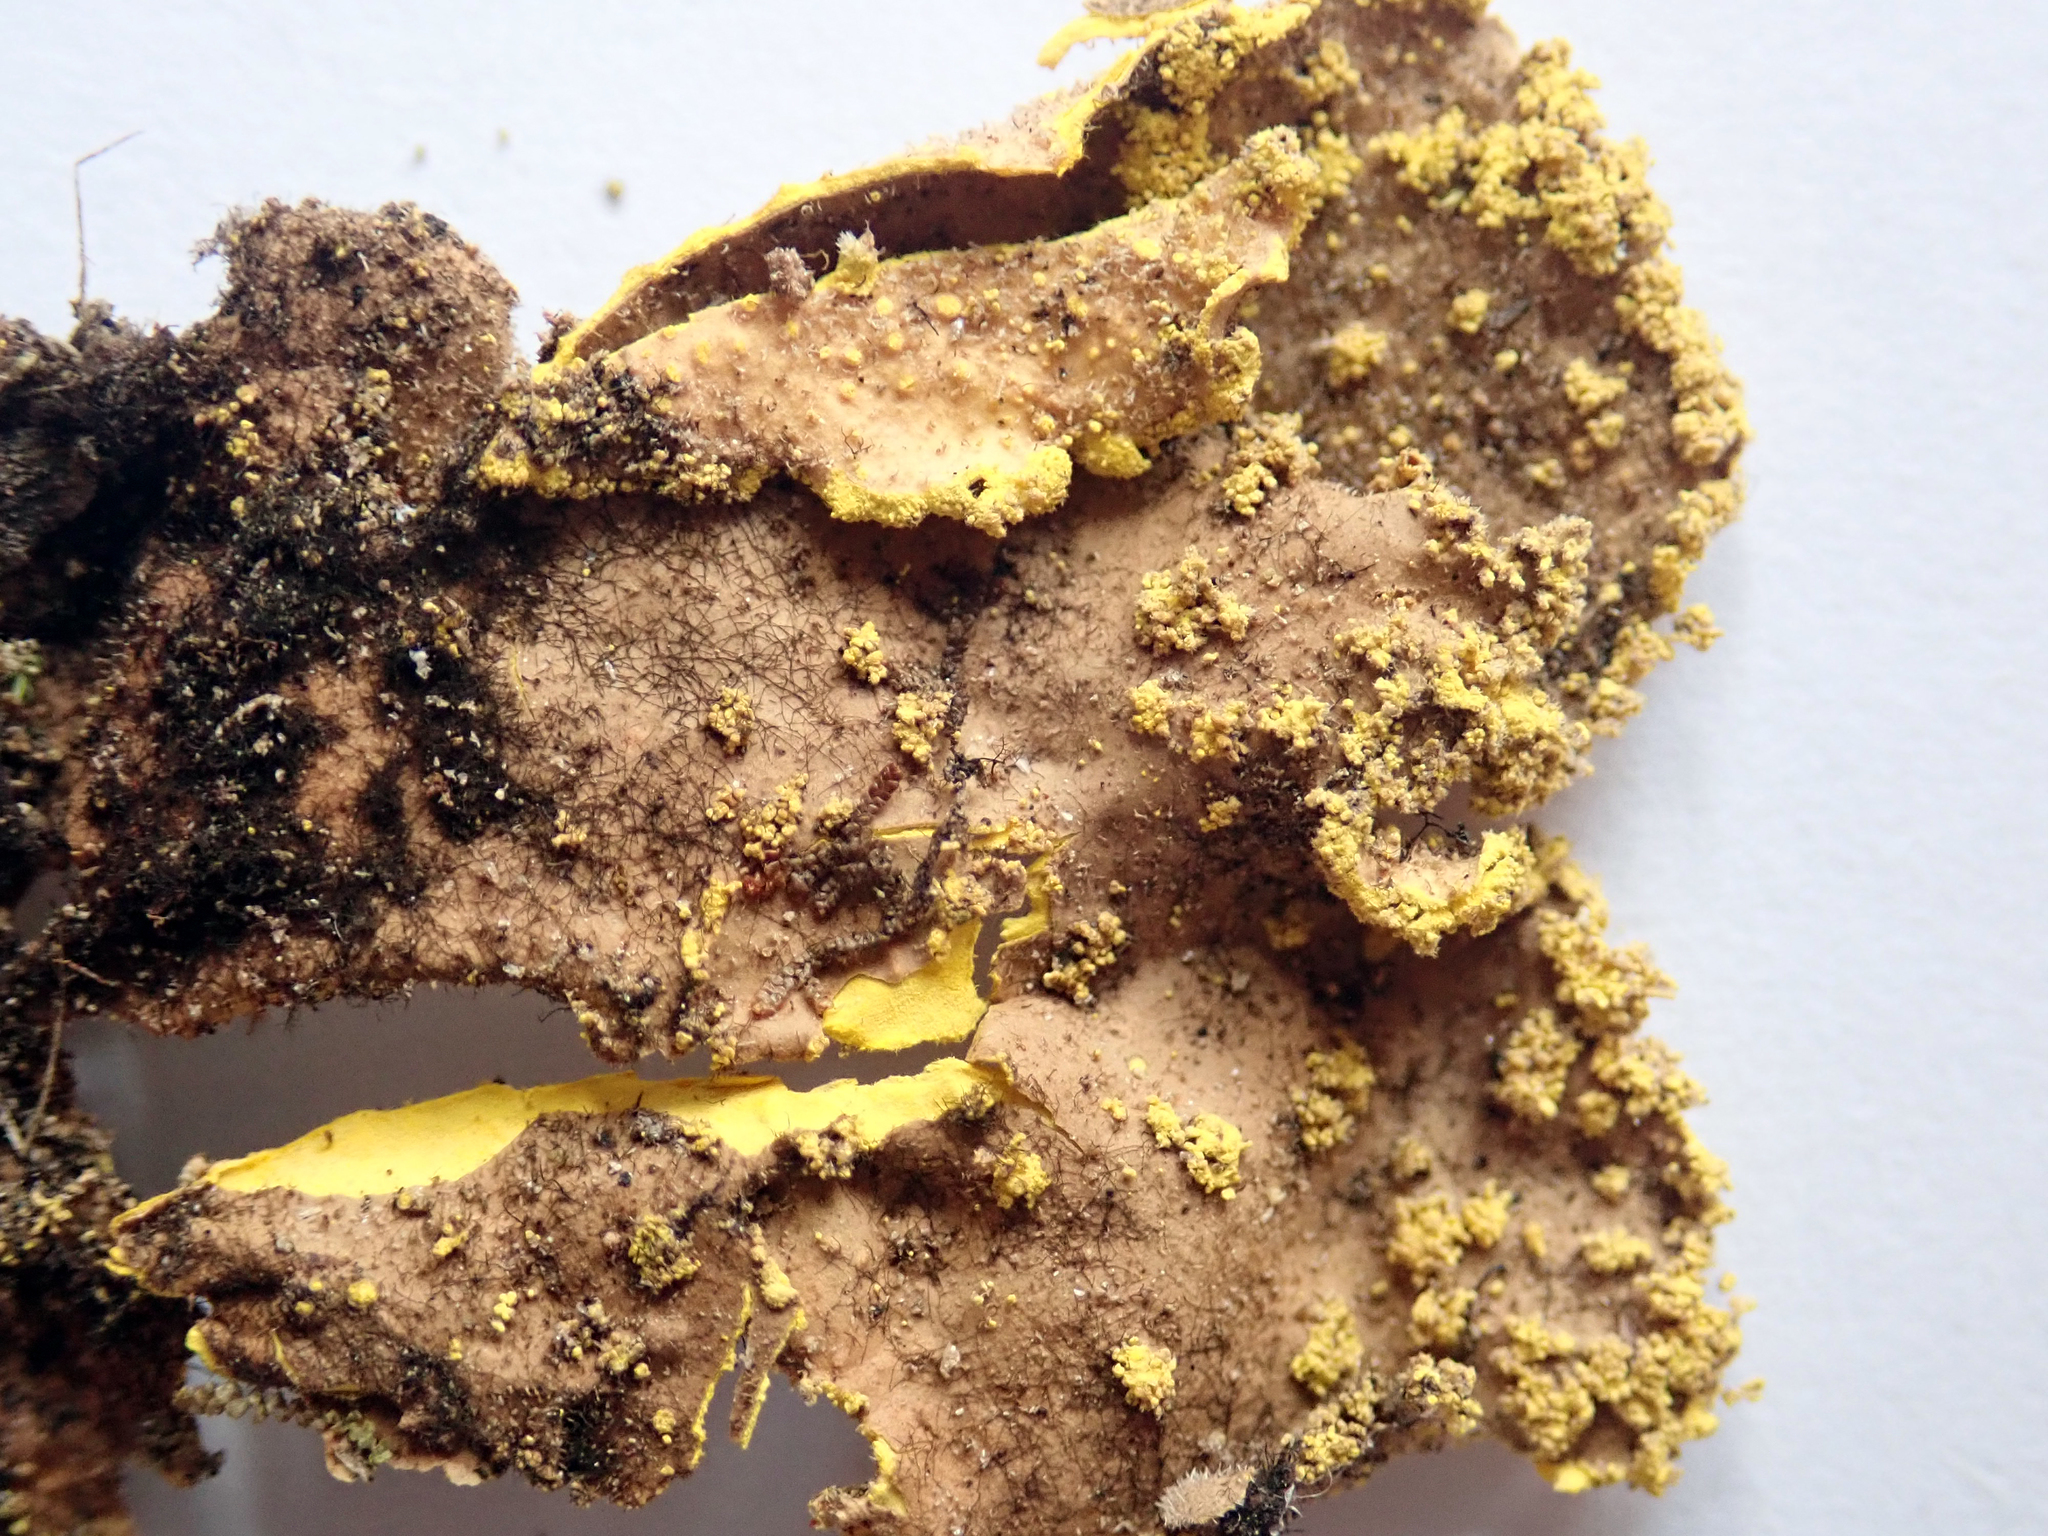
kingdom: Fungi
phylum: Ascomycota
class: Lecanoromycetes
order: Peltigerales
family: Lobariaceae
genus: Pseudocyphellaria
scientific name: Pseudocyphellaria rubella
